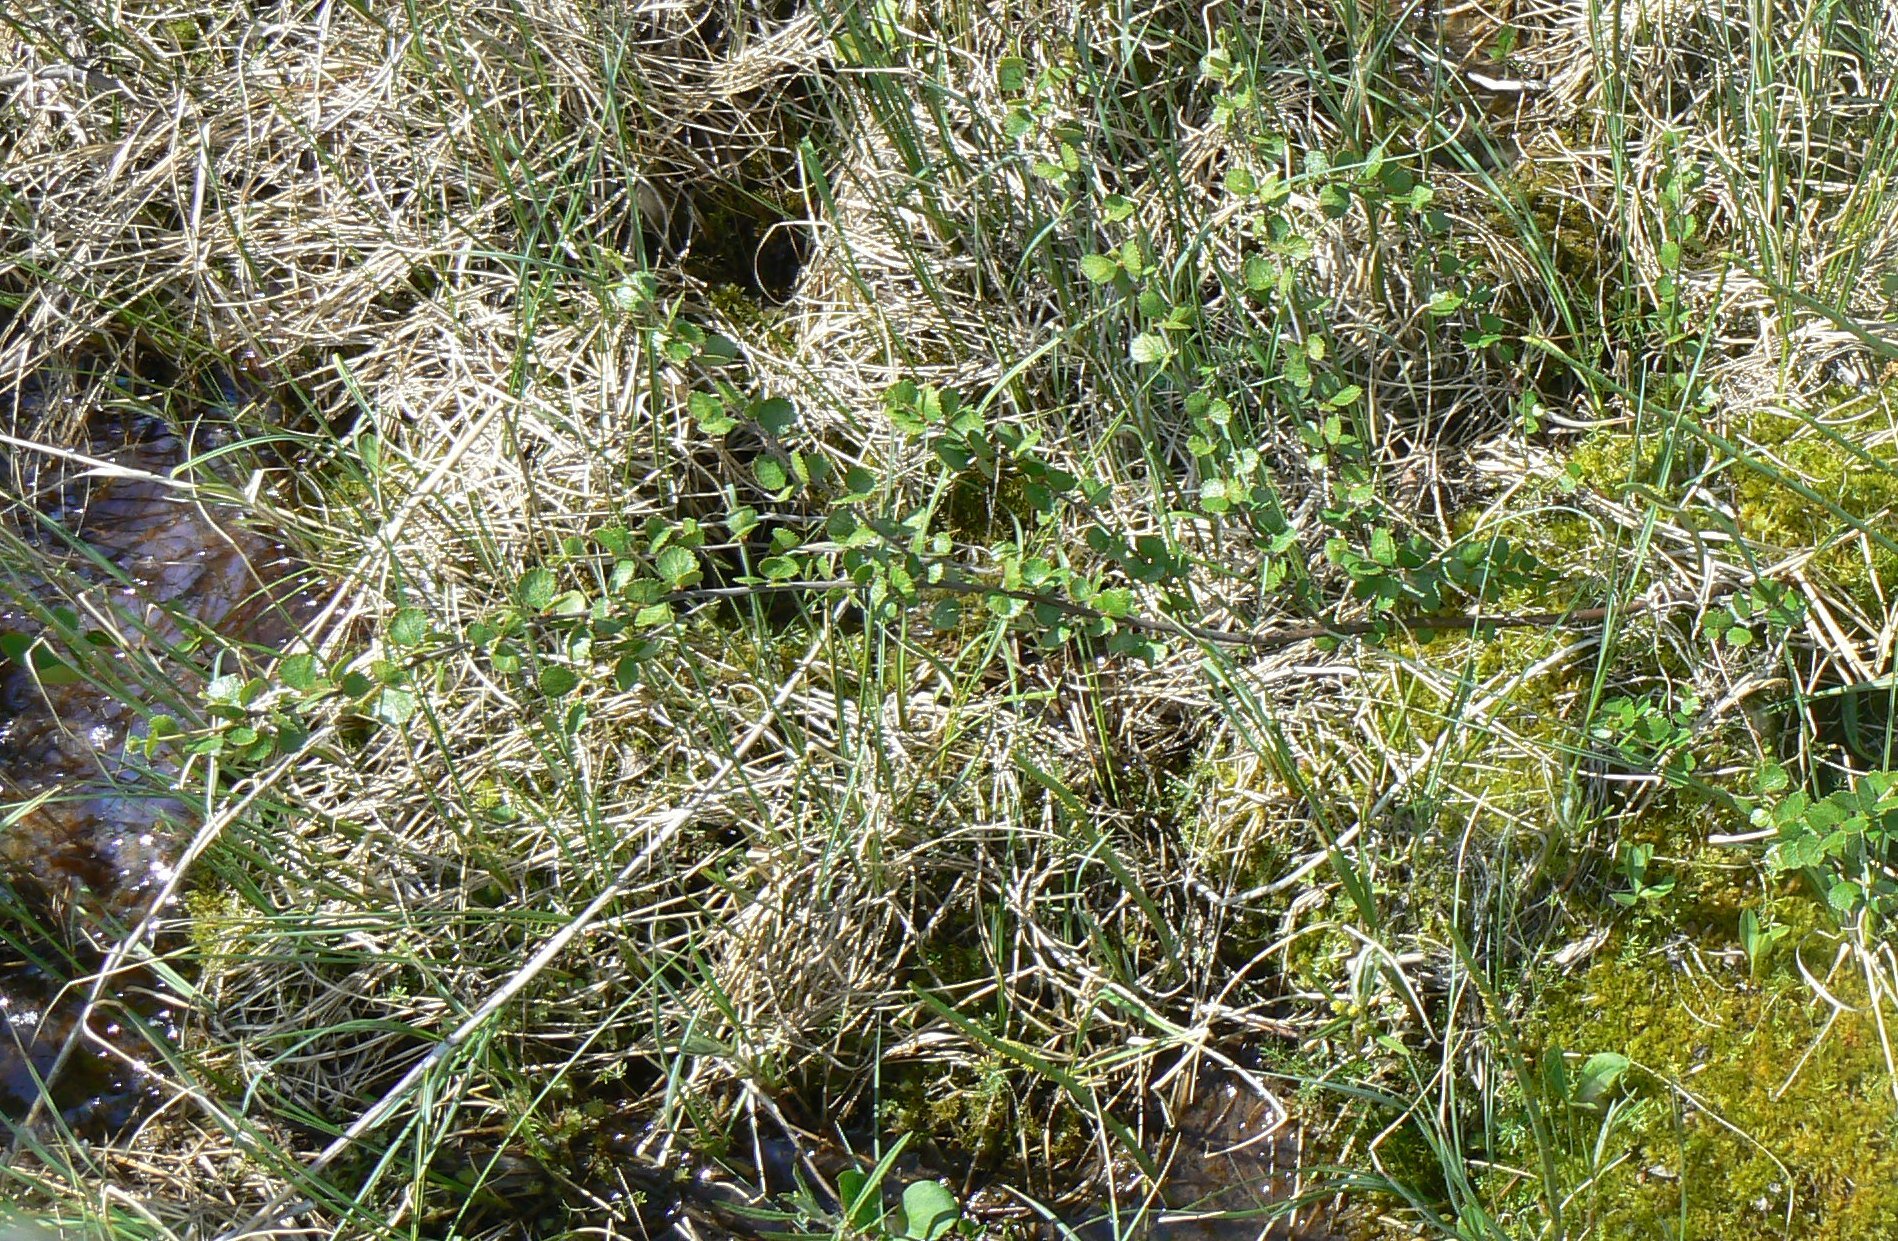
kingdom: Plantae
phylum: Tracheophyta
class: Magnoliopsida
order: Fagales
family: Betulaceae
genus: Betula
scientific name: Betula nana
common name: Arctic dwarf birch
